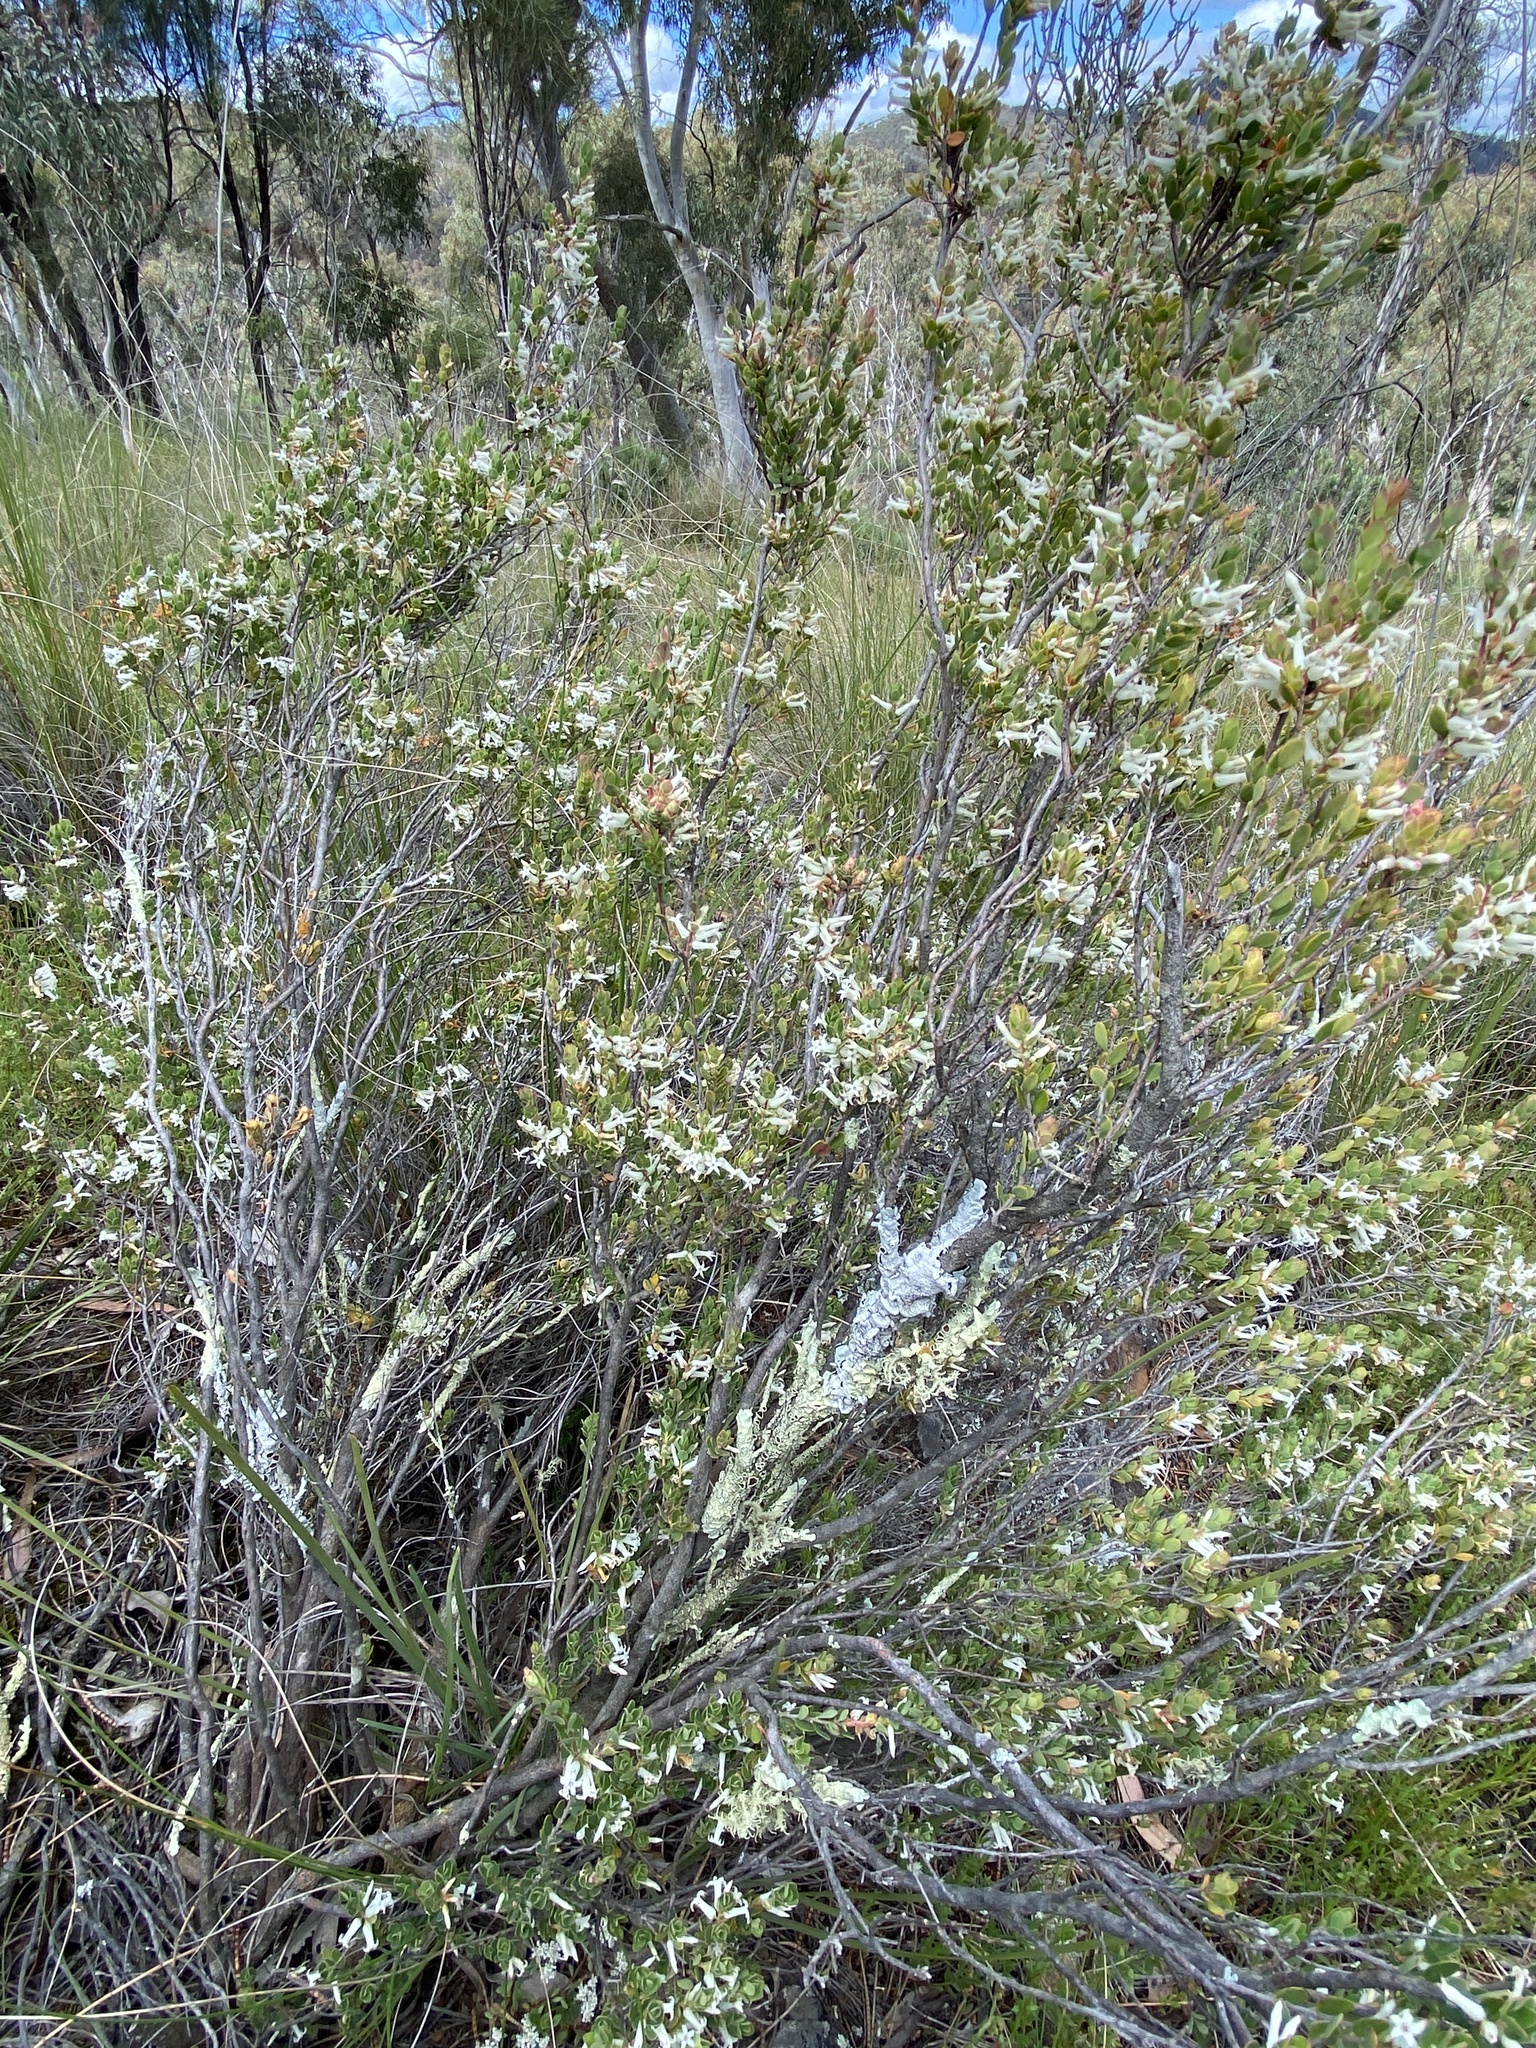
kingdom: Plantae
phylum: Tracheophyta
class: Magnoliopsida
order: Ericales
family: Ericaceae
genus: Brachyloma
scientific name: Brachyloma daphnoides
